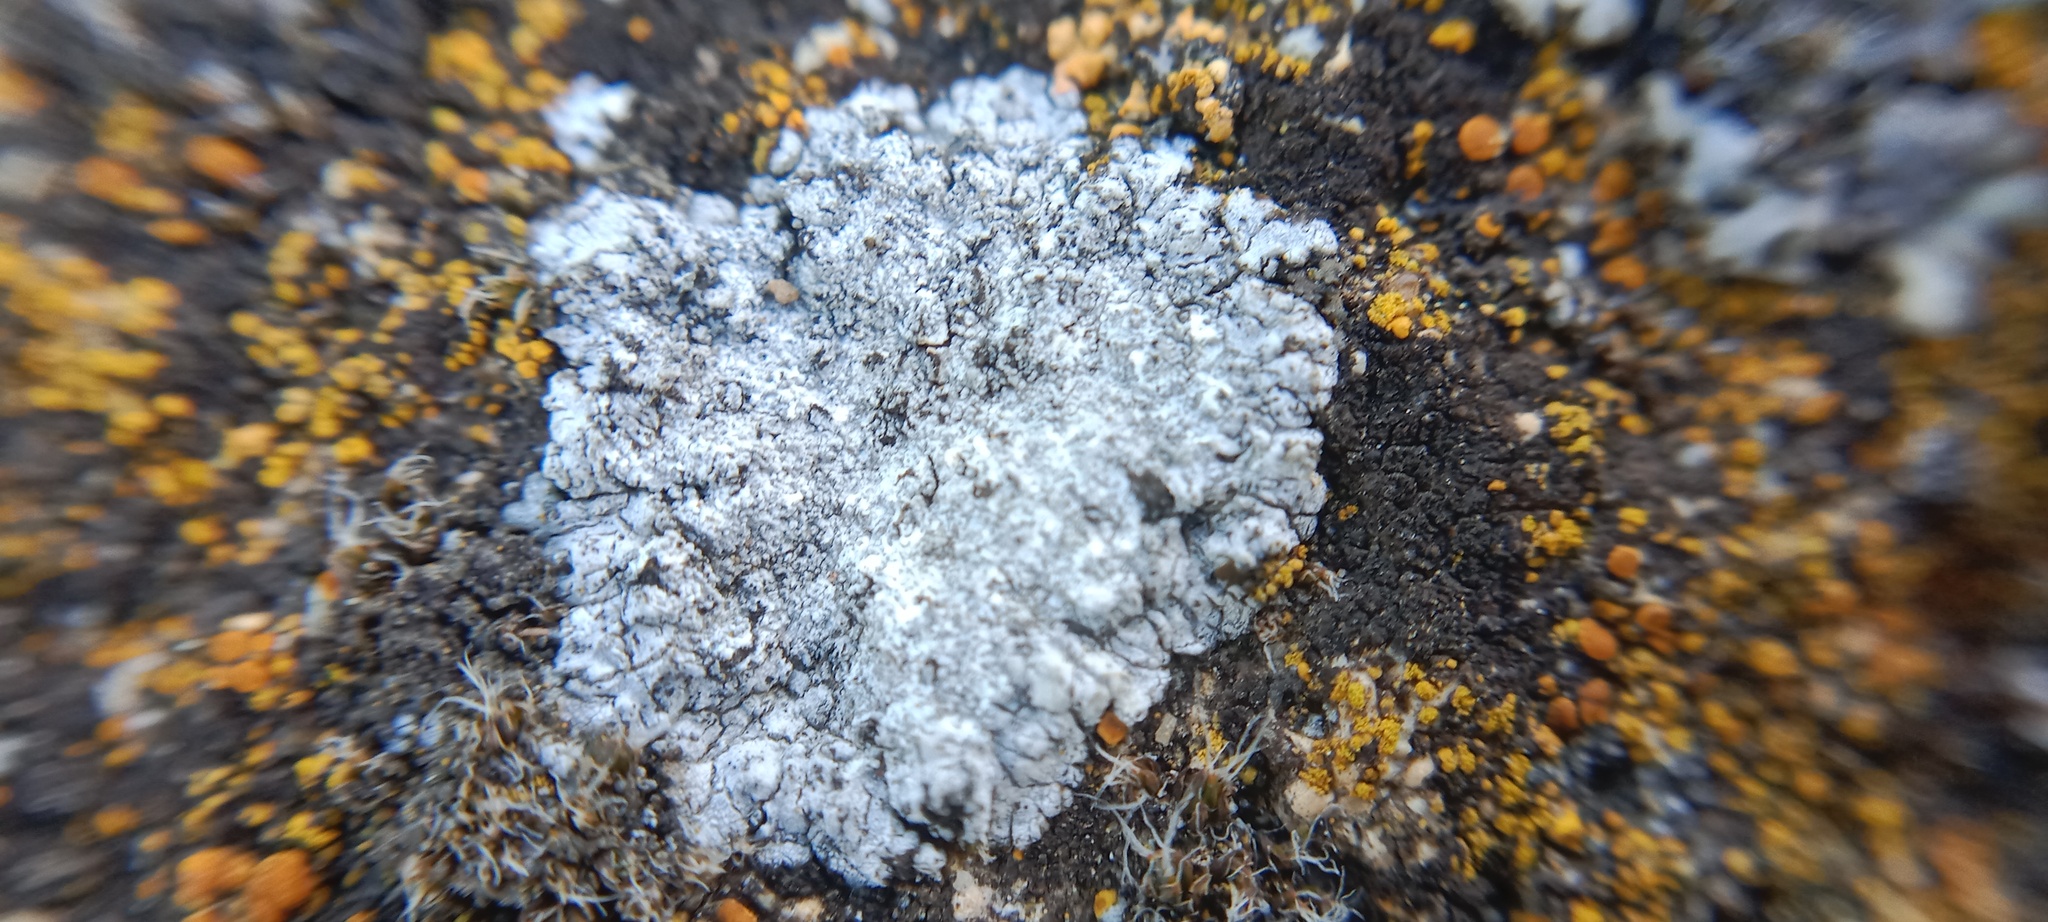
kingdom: Fungi
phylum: Ascomycota
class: Lecanoromycetes
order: Teloschistales
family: Teloschistaceae
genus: Kuettlingeria
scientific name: Kuettlingeria teicholyta
